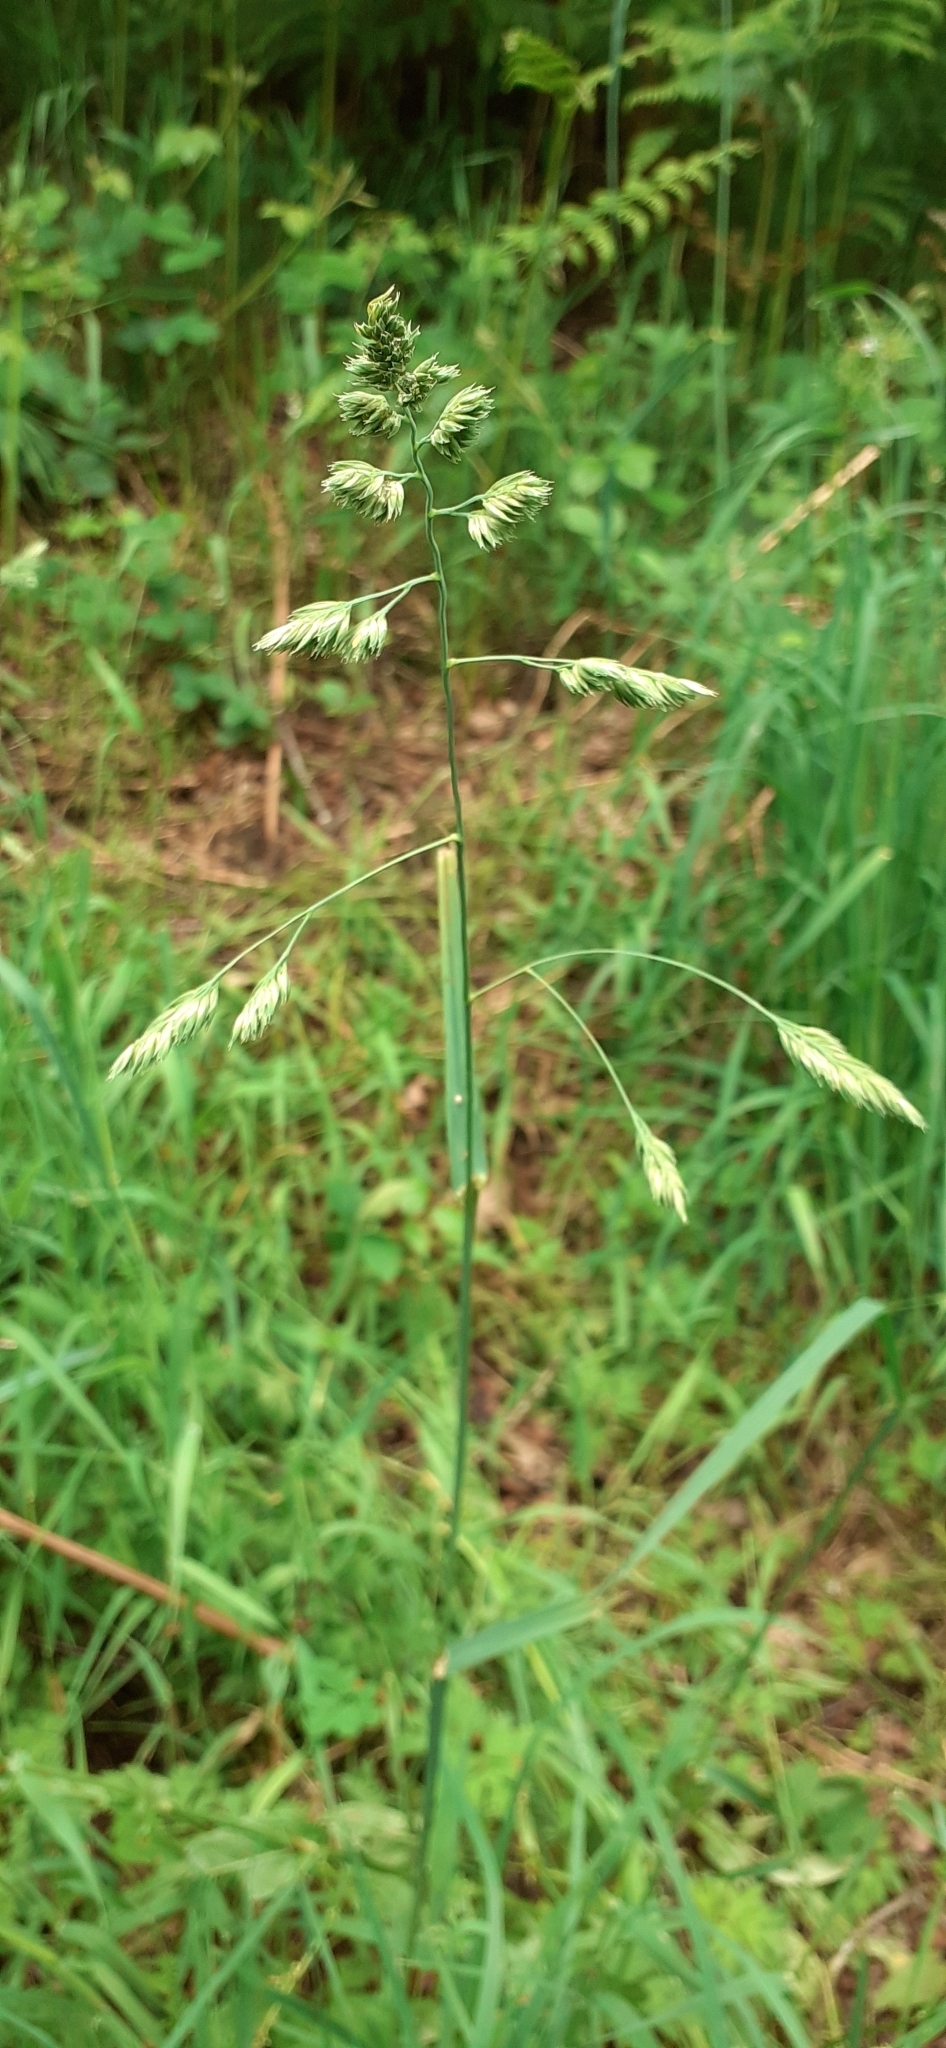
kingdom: Plantae
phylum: Tracheophyta
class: Liliopsida
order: Poales
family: Poaceae
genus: Dactylis
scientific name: Dactylis glomerata
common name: Orchardgrass
